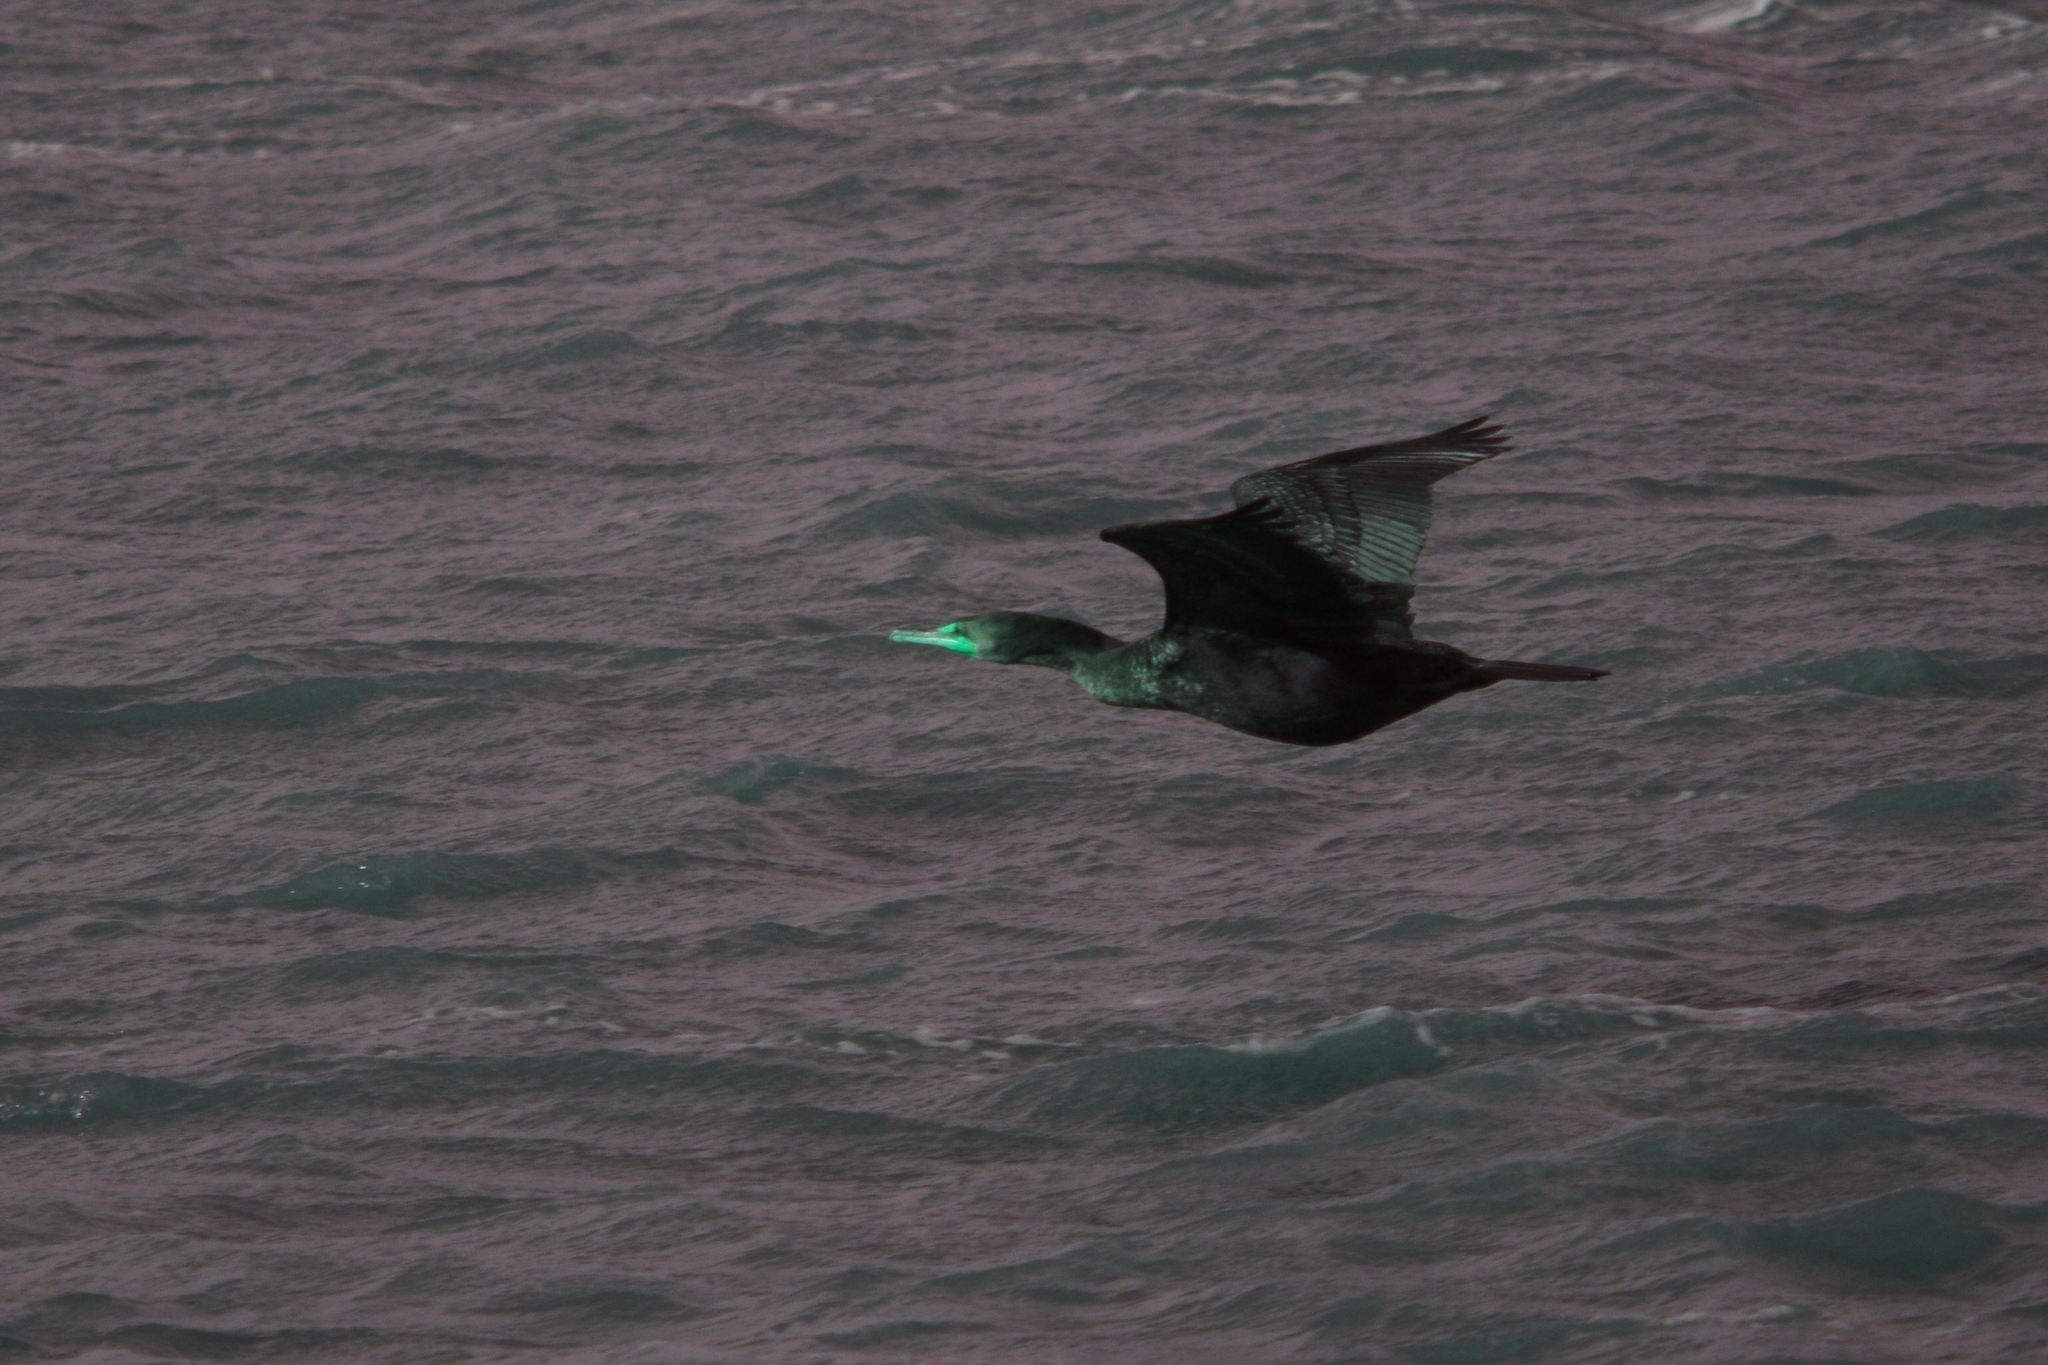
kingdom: Animalia
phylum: Chordata
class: Aves
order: Suliformes
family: Phalacrocoracidae
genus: Phalacrocorax
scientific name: Phalacrocorax auritus
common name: Double-crested cormorant
